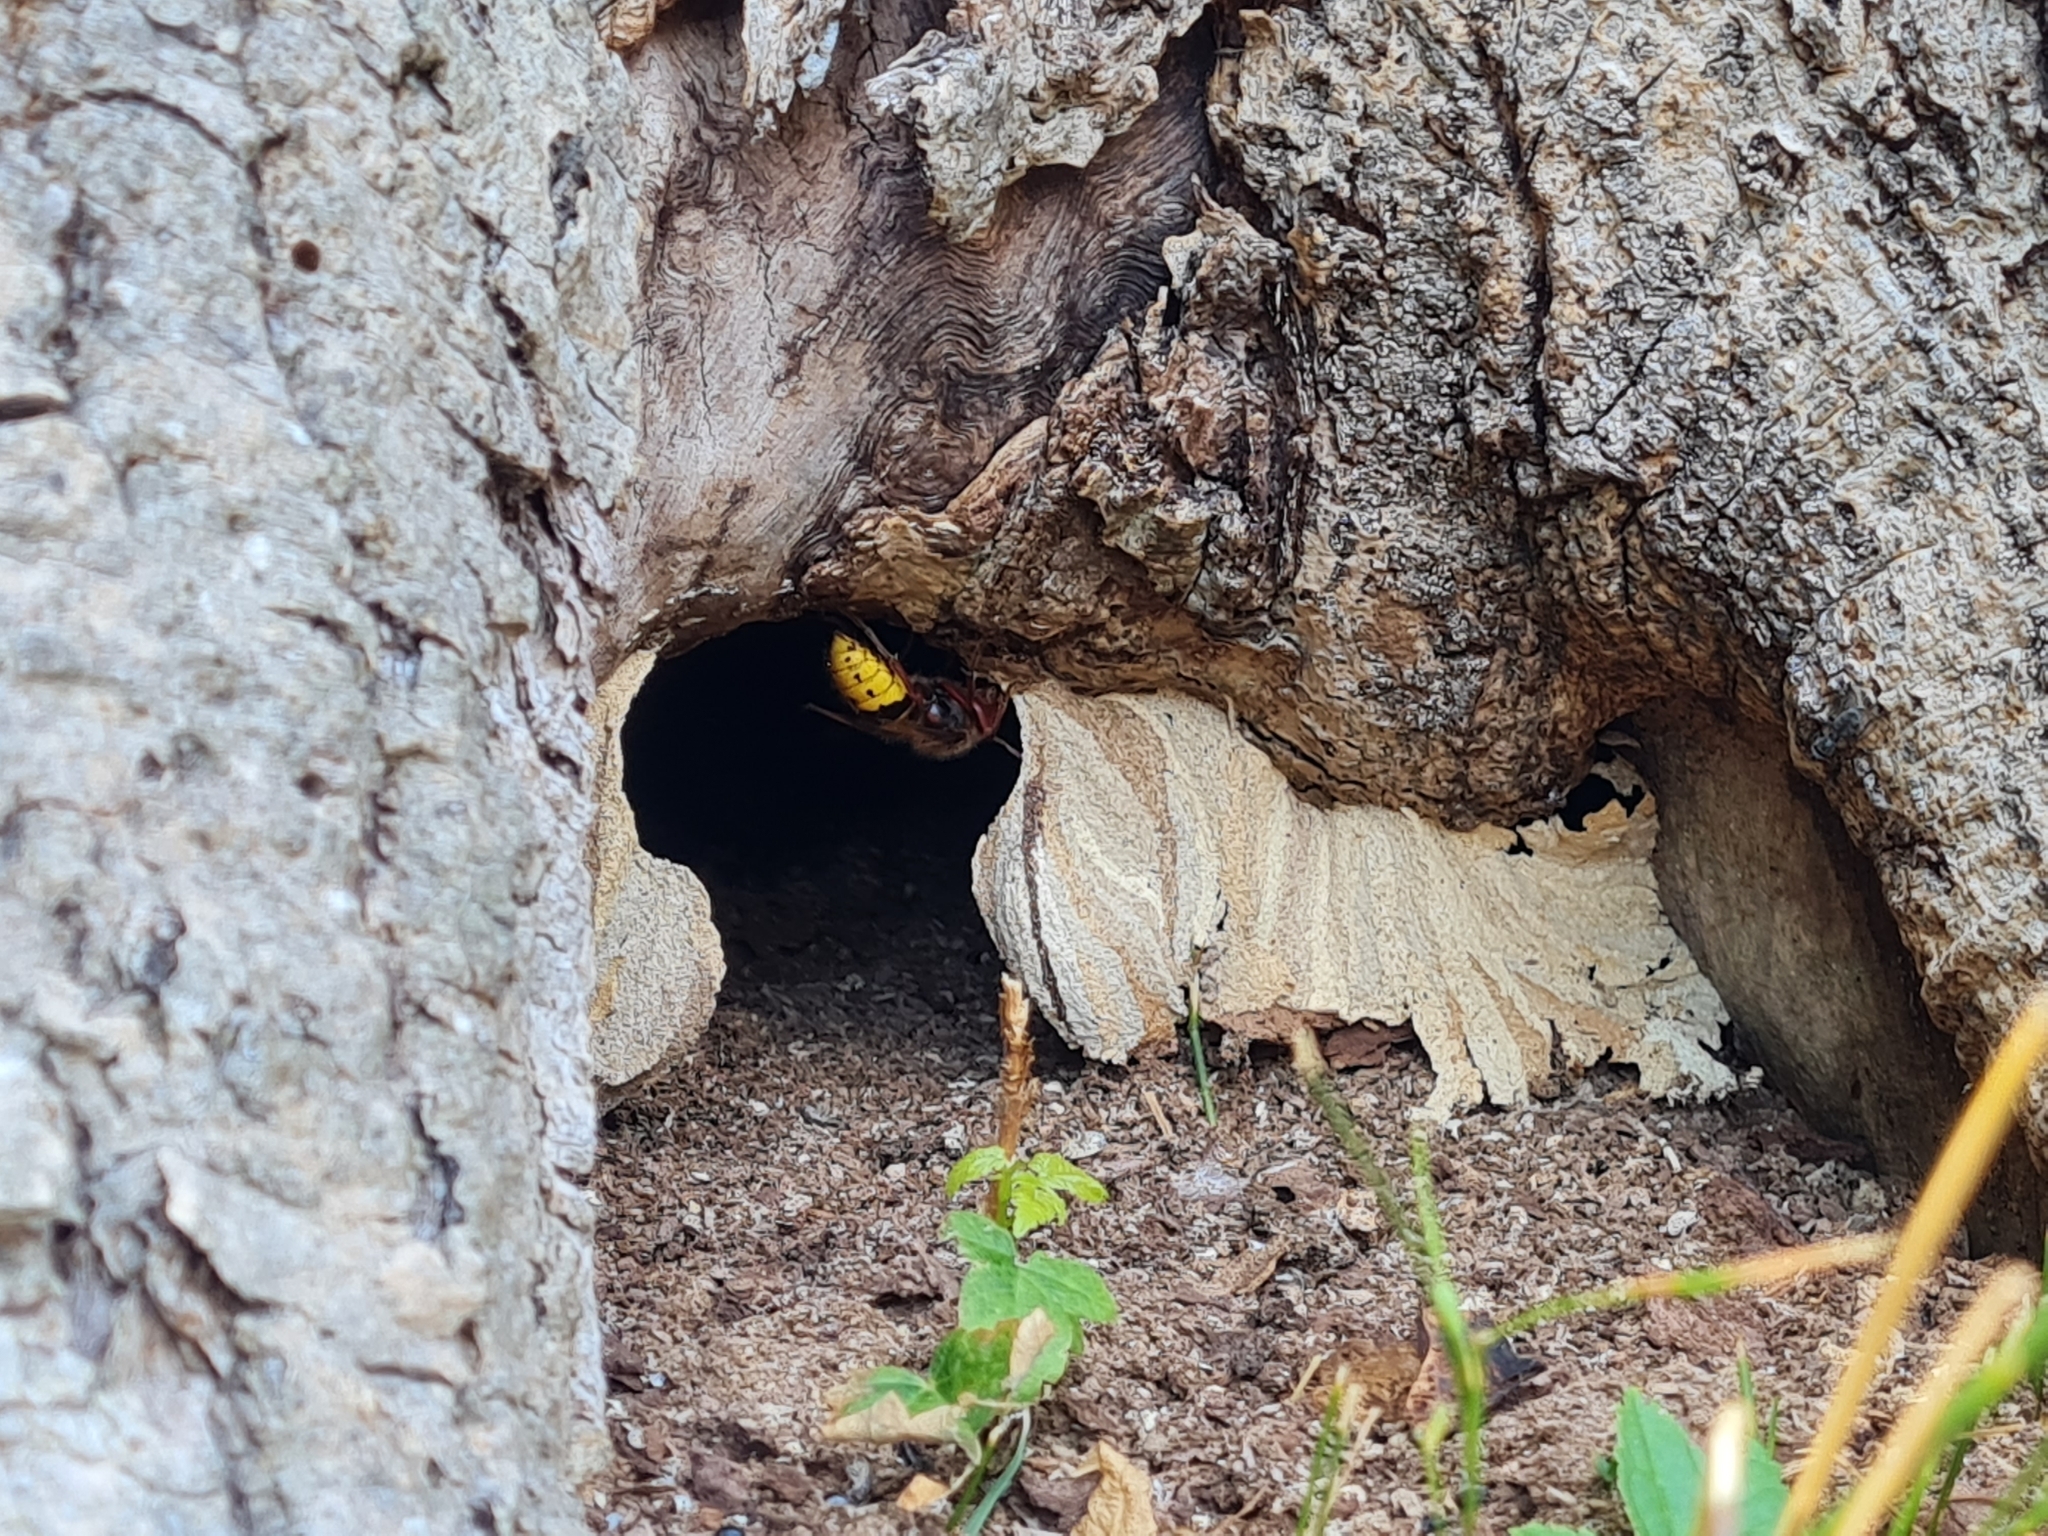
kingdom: Animalia
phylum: Arthropoda
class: Insecta
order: Hymenoptera
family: Vespidae
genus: Vespa
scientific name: Vespa crabro
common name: Hornet
